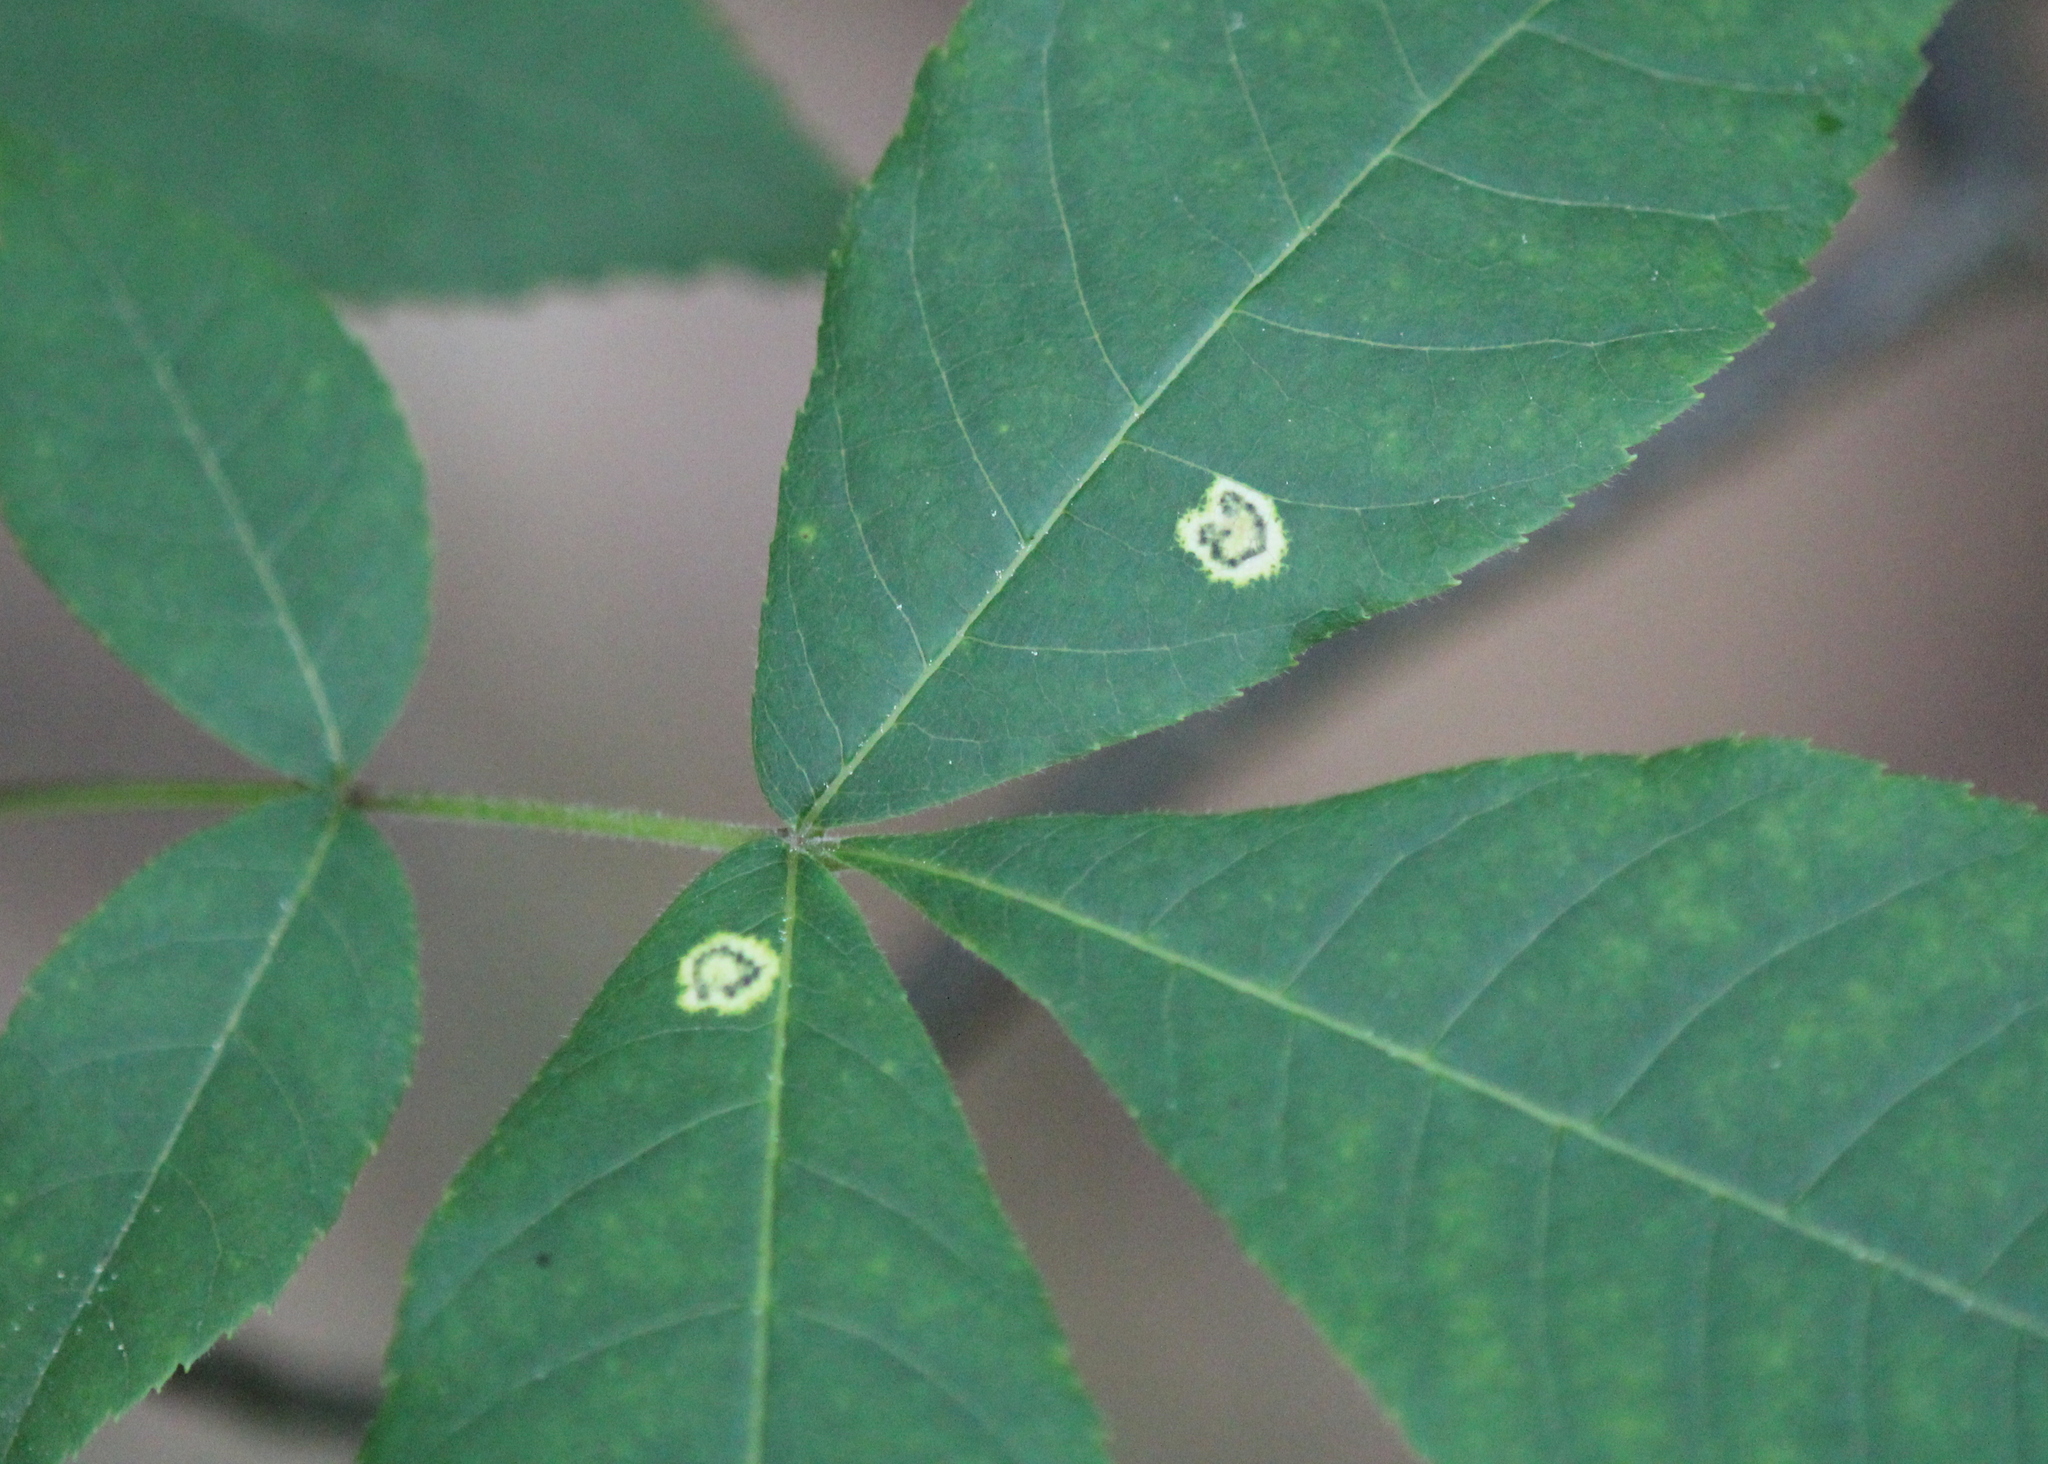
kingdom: Animalia
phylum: Arthropoda
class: Insecta
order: Diptera
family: Cecidomyiidae
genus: Gliaspilota
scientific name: Gliaspilota glutinosa
